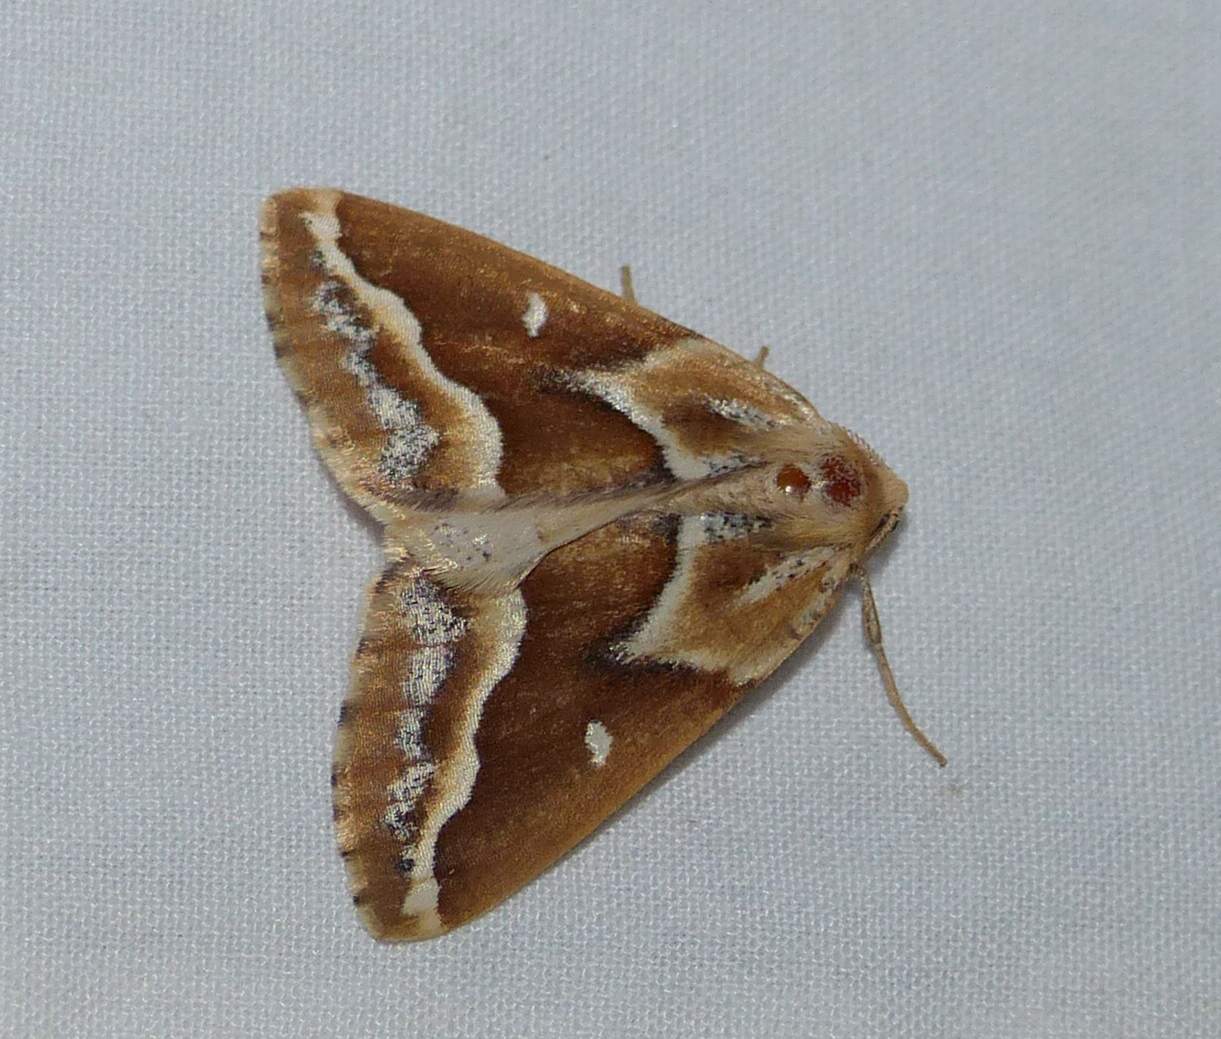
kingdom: Animalia
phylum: Arthropoda
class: Insecta
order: Lepidoptera
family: Geometridae
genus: Caripeta
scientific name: Caripeta angustiorata
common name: Brown pine looper
